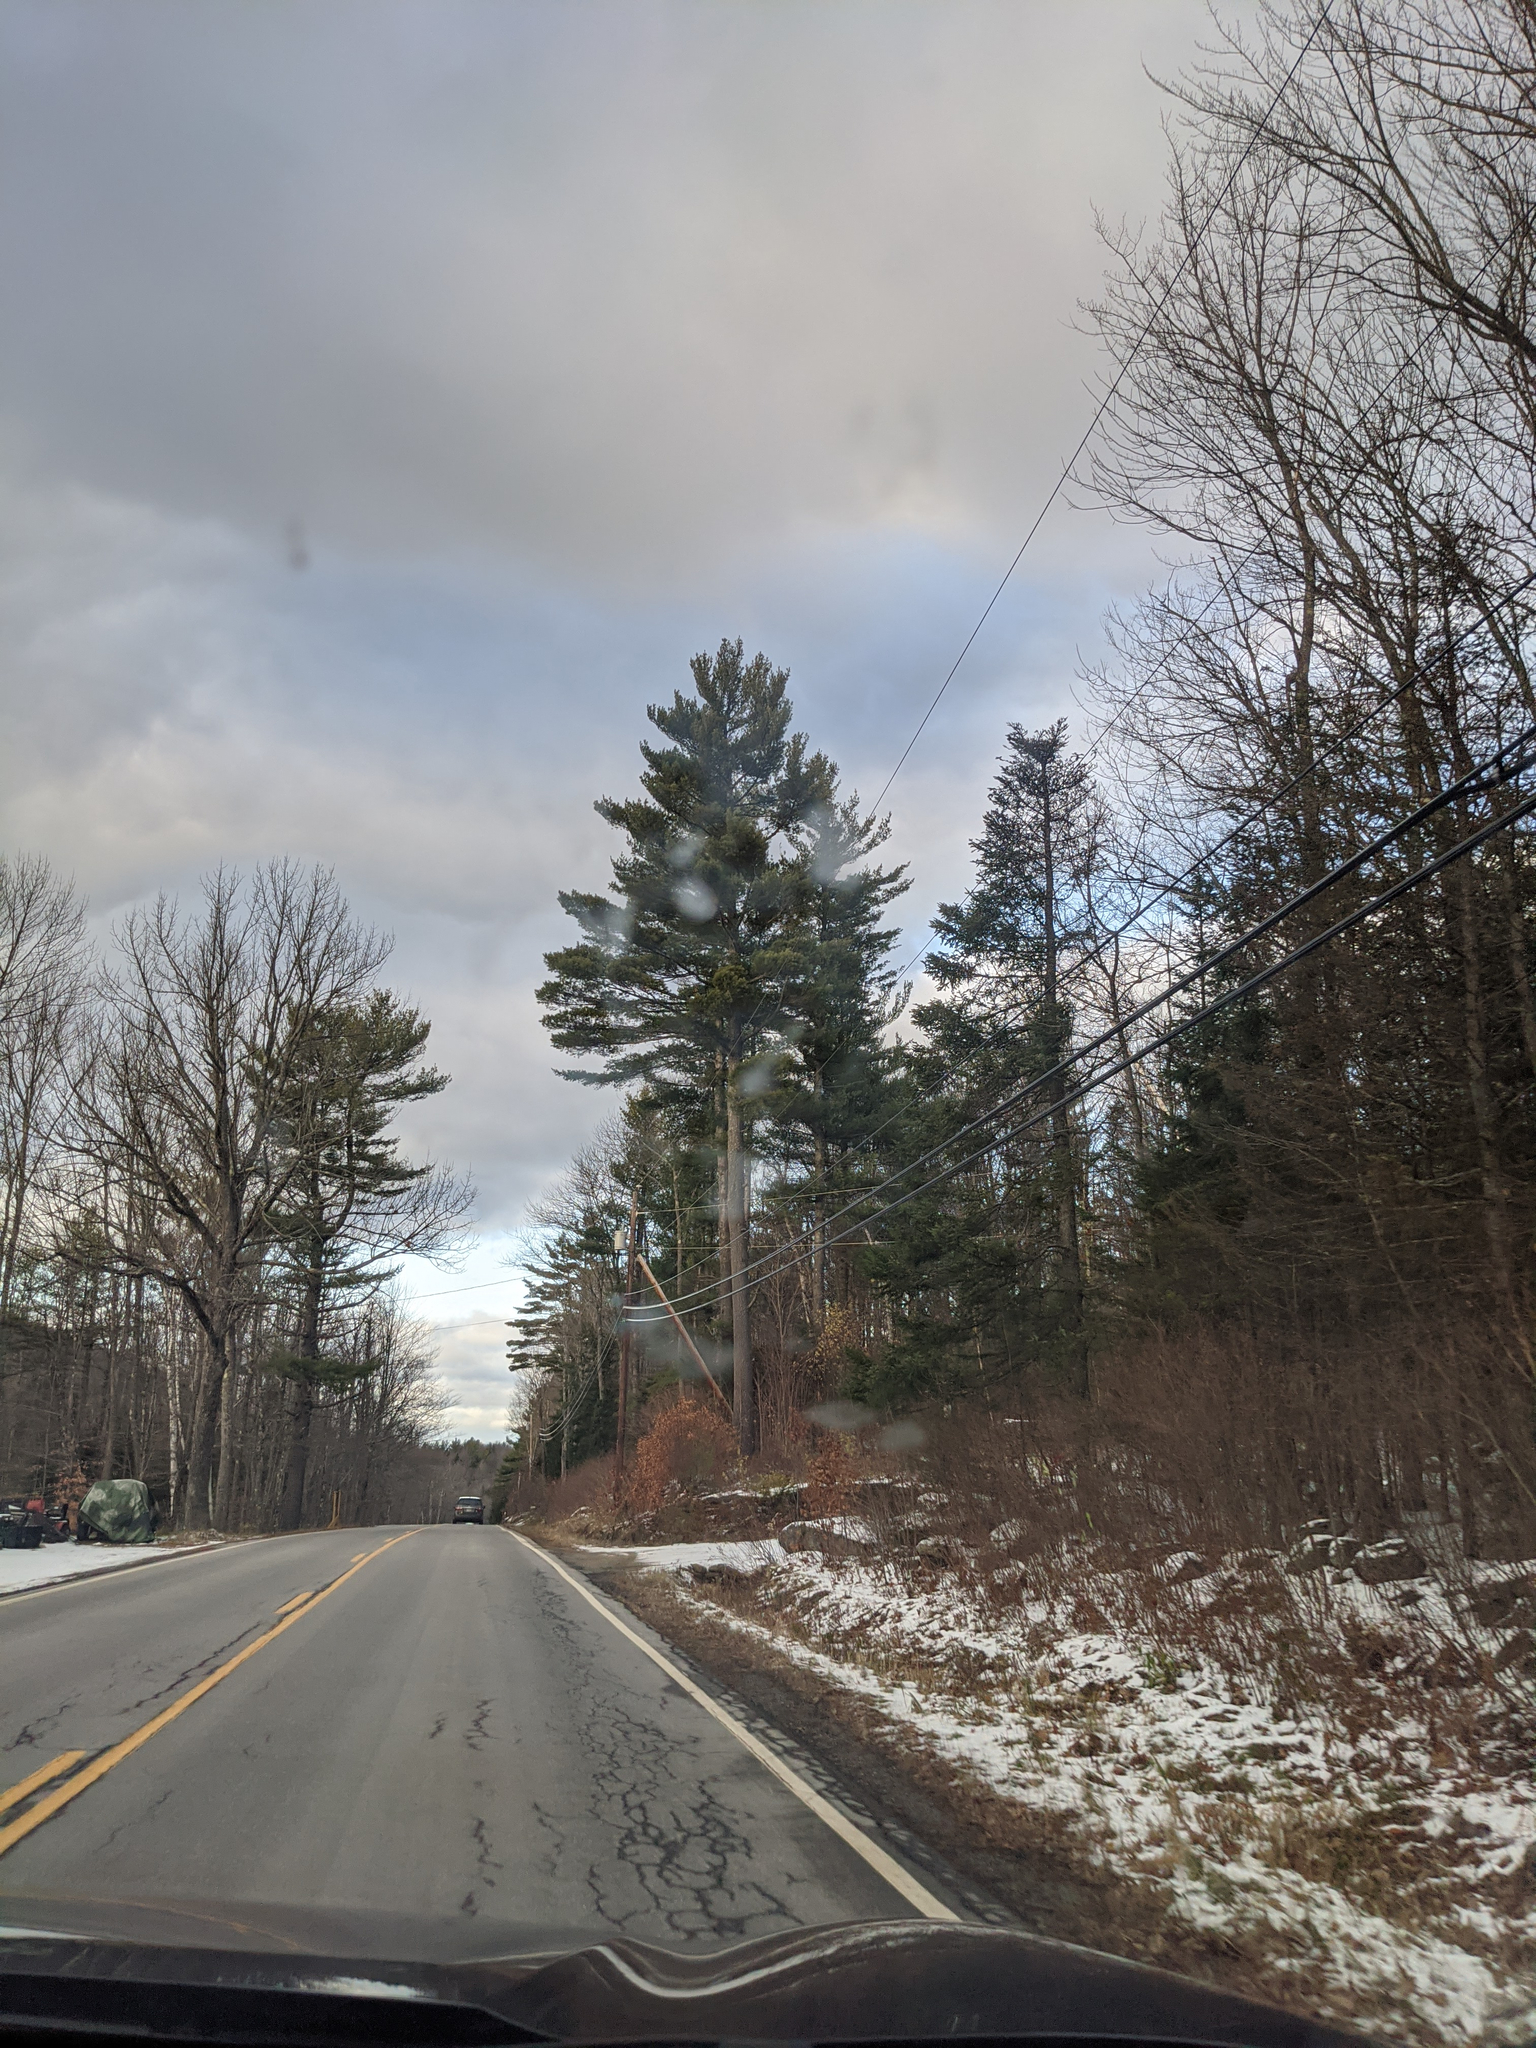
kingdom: Plantae
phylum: Tracheophyta
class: Pinopsida
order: Pinales
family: Pinaceae
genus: Pinus
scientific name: Pinus strobus
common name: Weymouth pine
